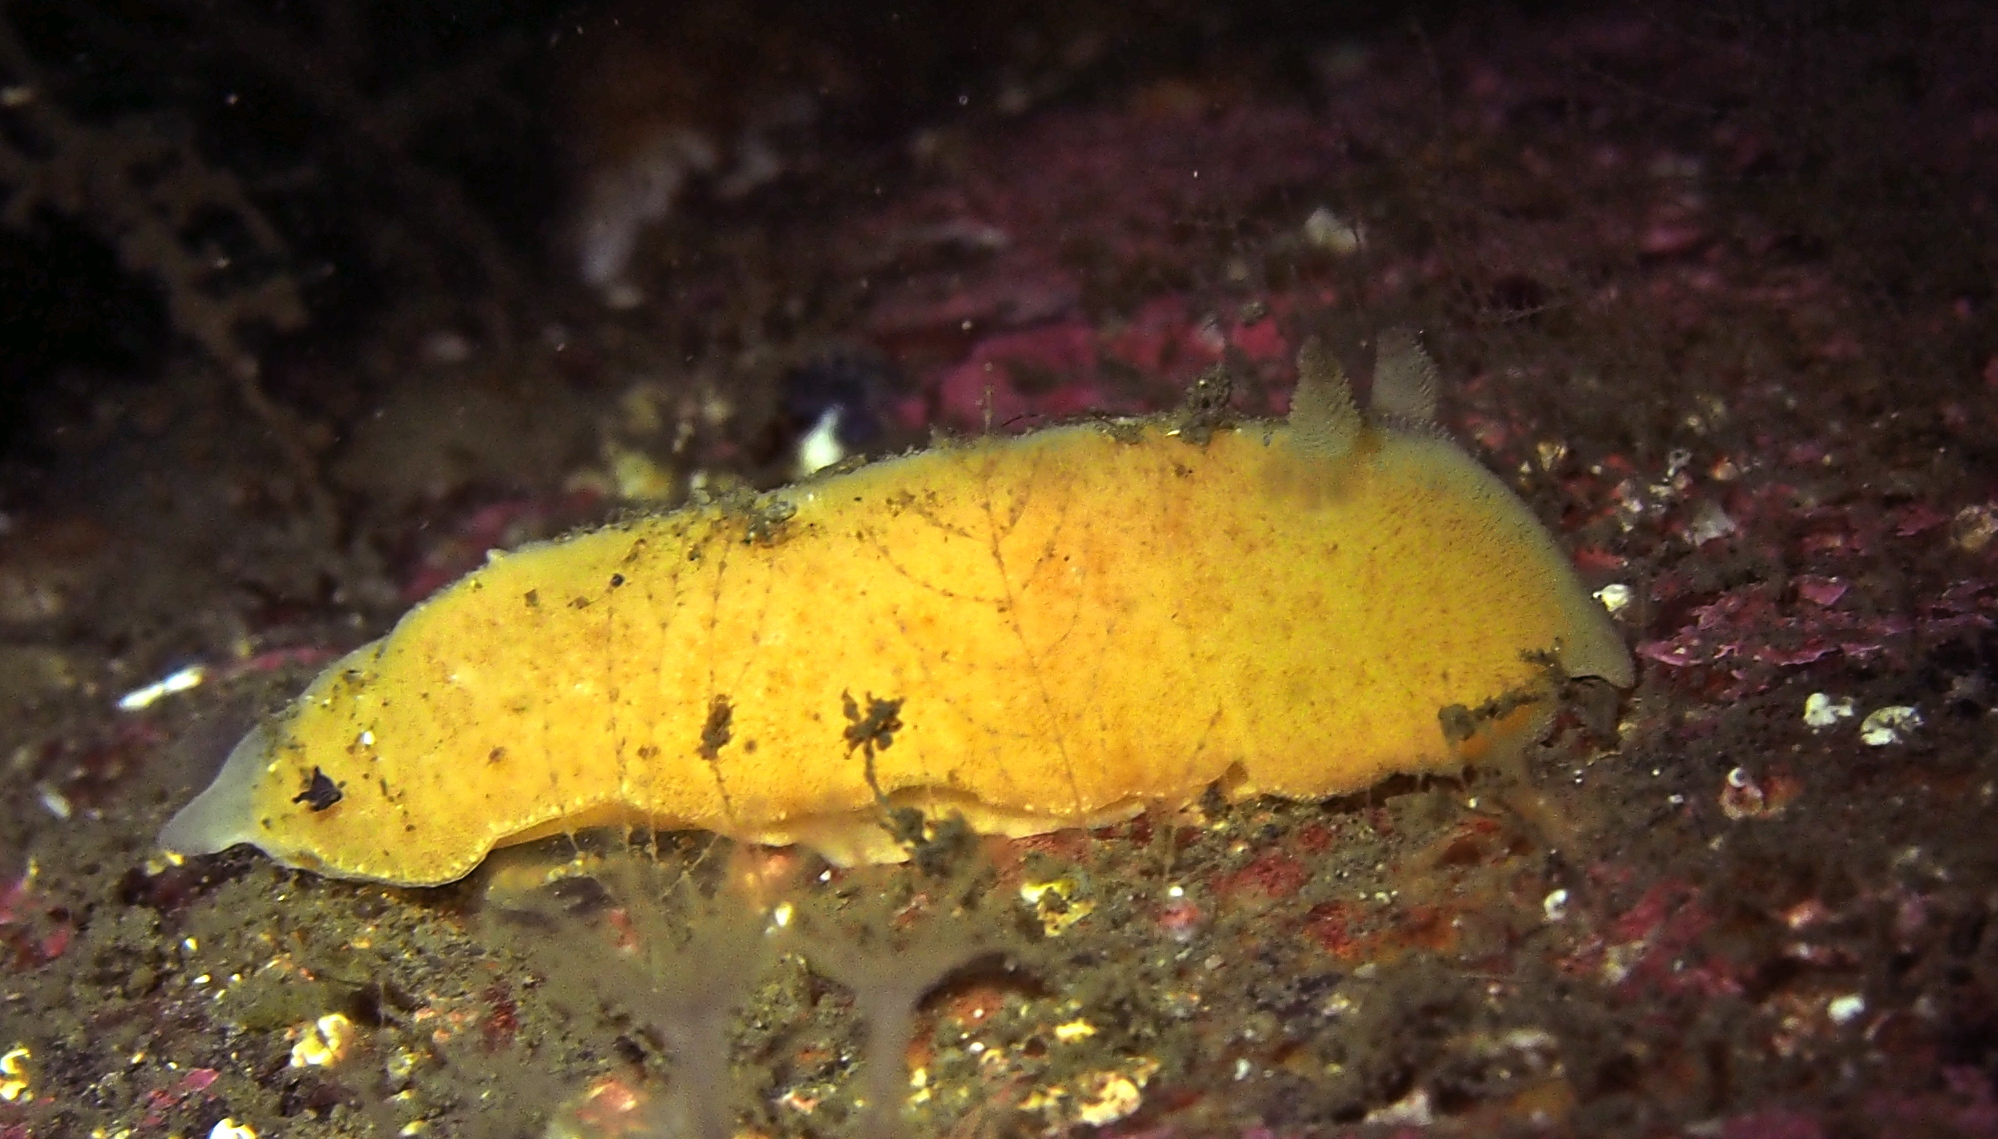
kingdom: Animalia
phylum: Mollusca
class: Gastropoda
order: Nudibranchia
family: Discodorididae
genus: Jorunna
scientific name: Jorunna tomentosa
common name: Grey sea slug
